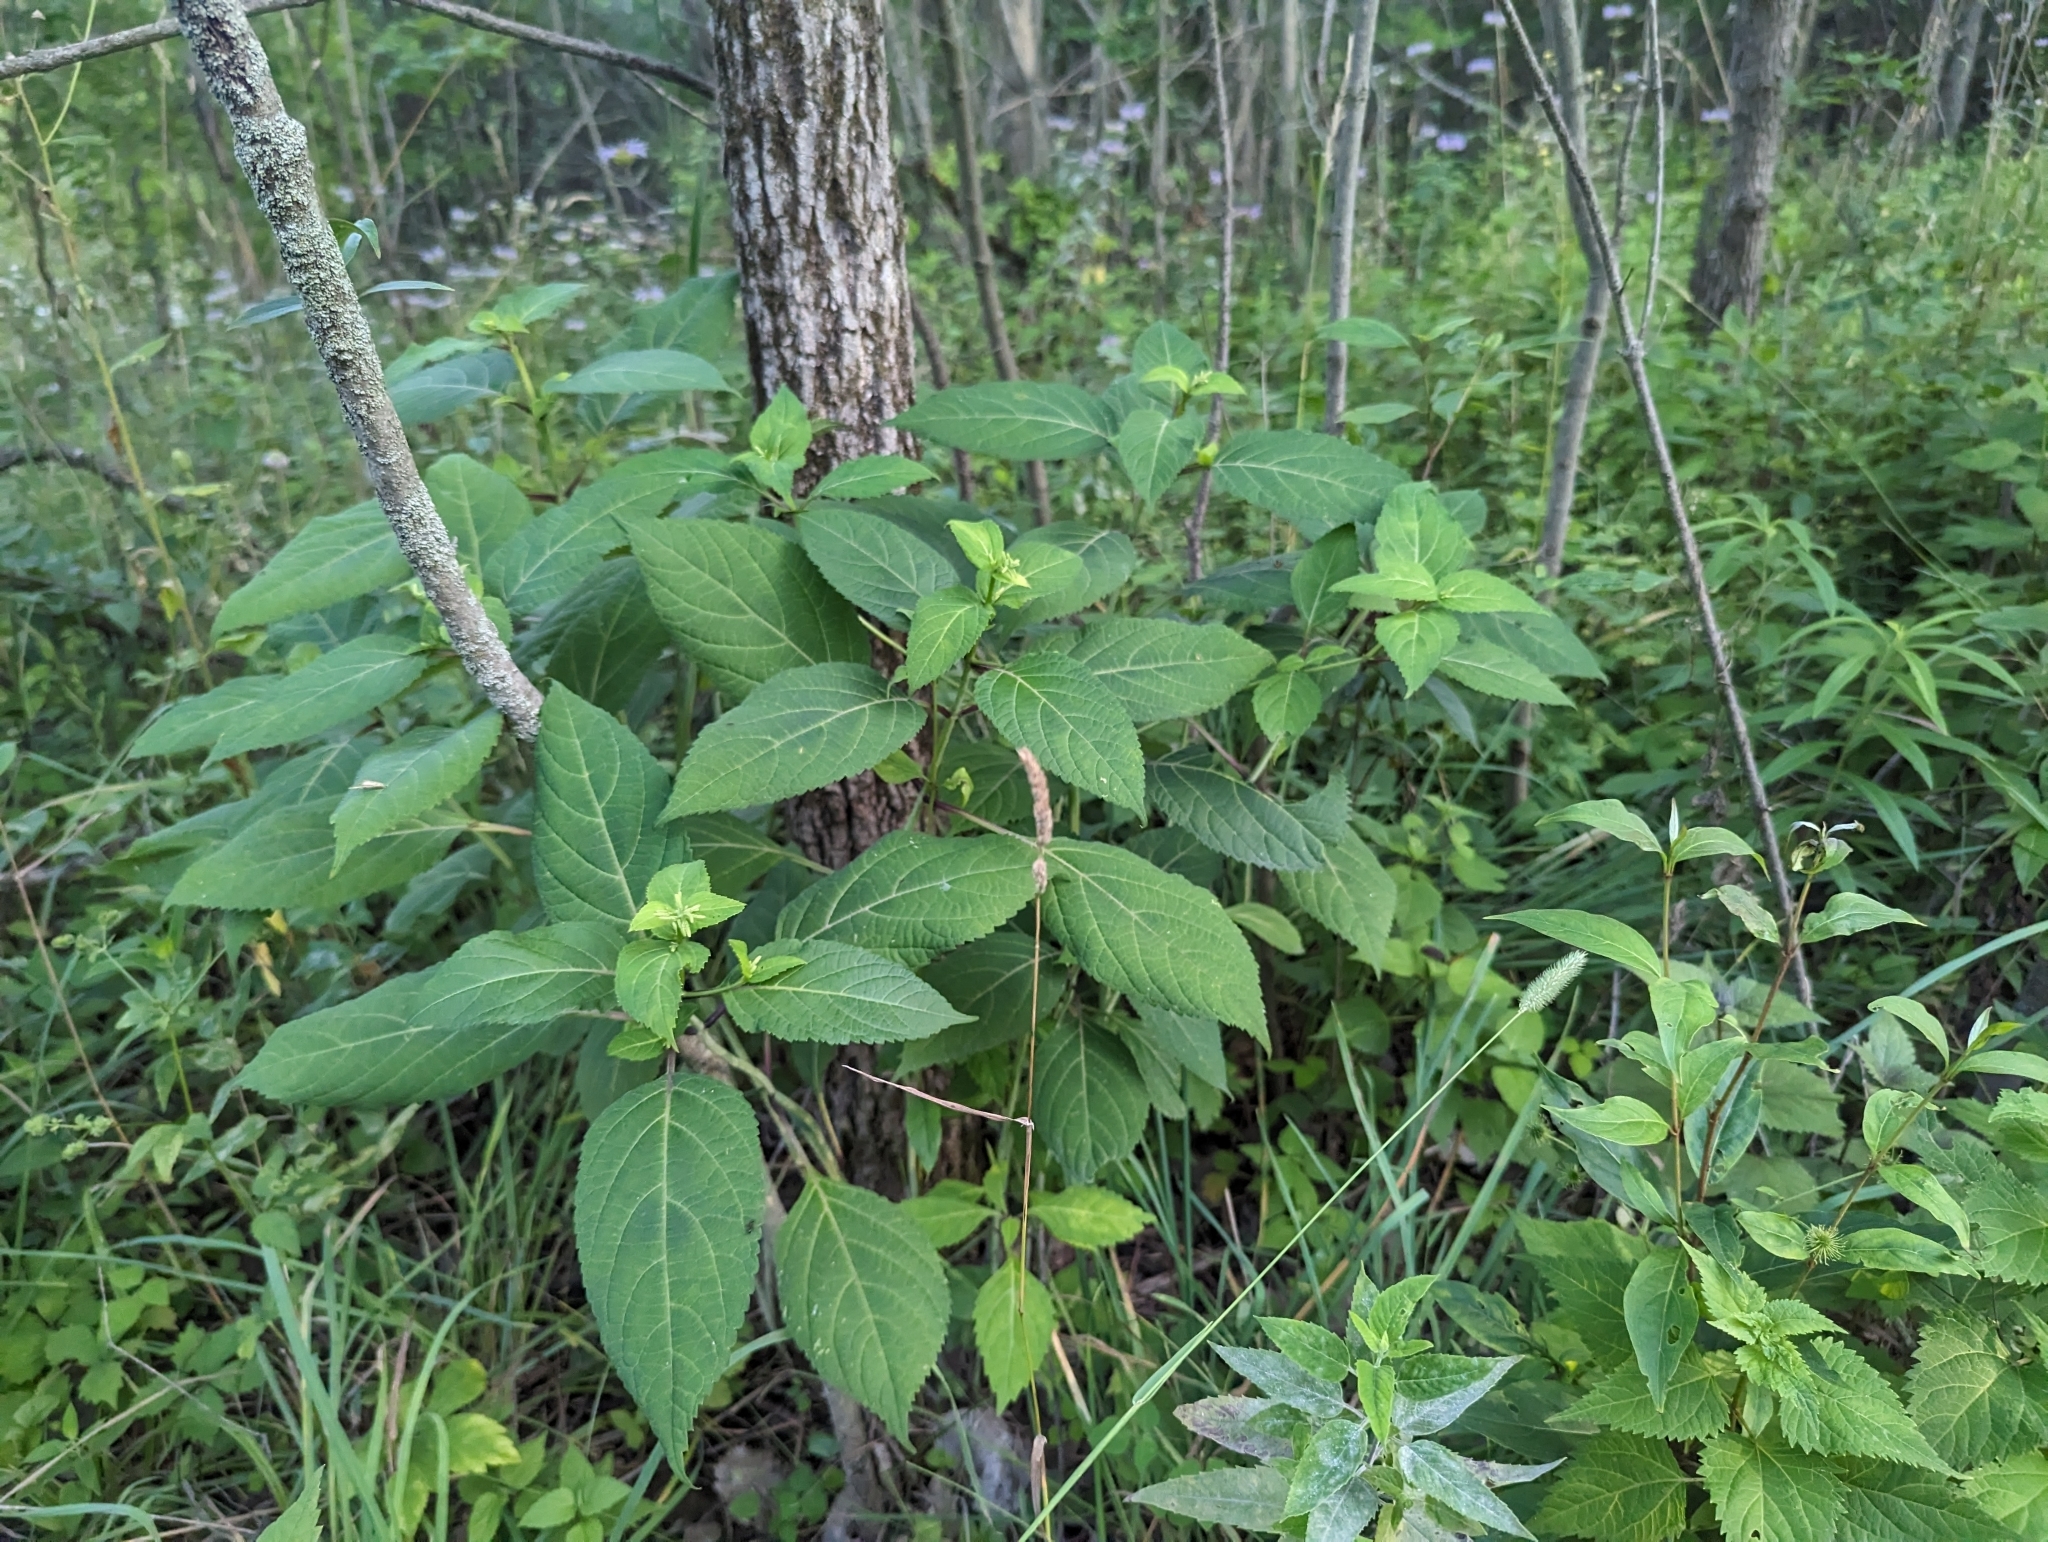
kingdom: Plantae
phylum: Tracheophyta
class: Magnoliopsida
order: Lamiales
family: Lamiaceae
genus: Collinsonia
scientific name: Collinsonia canadensis
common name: Northern horsebalm
